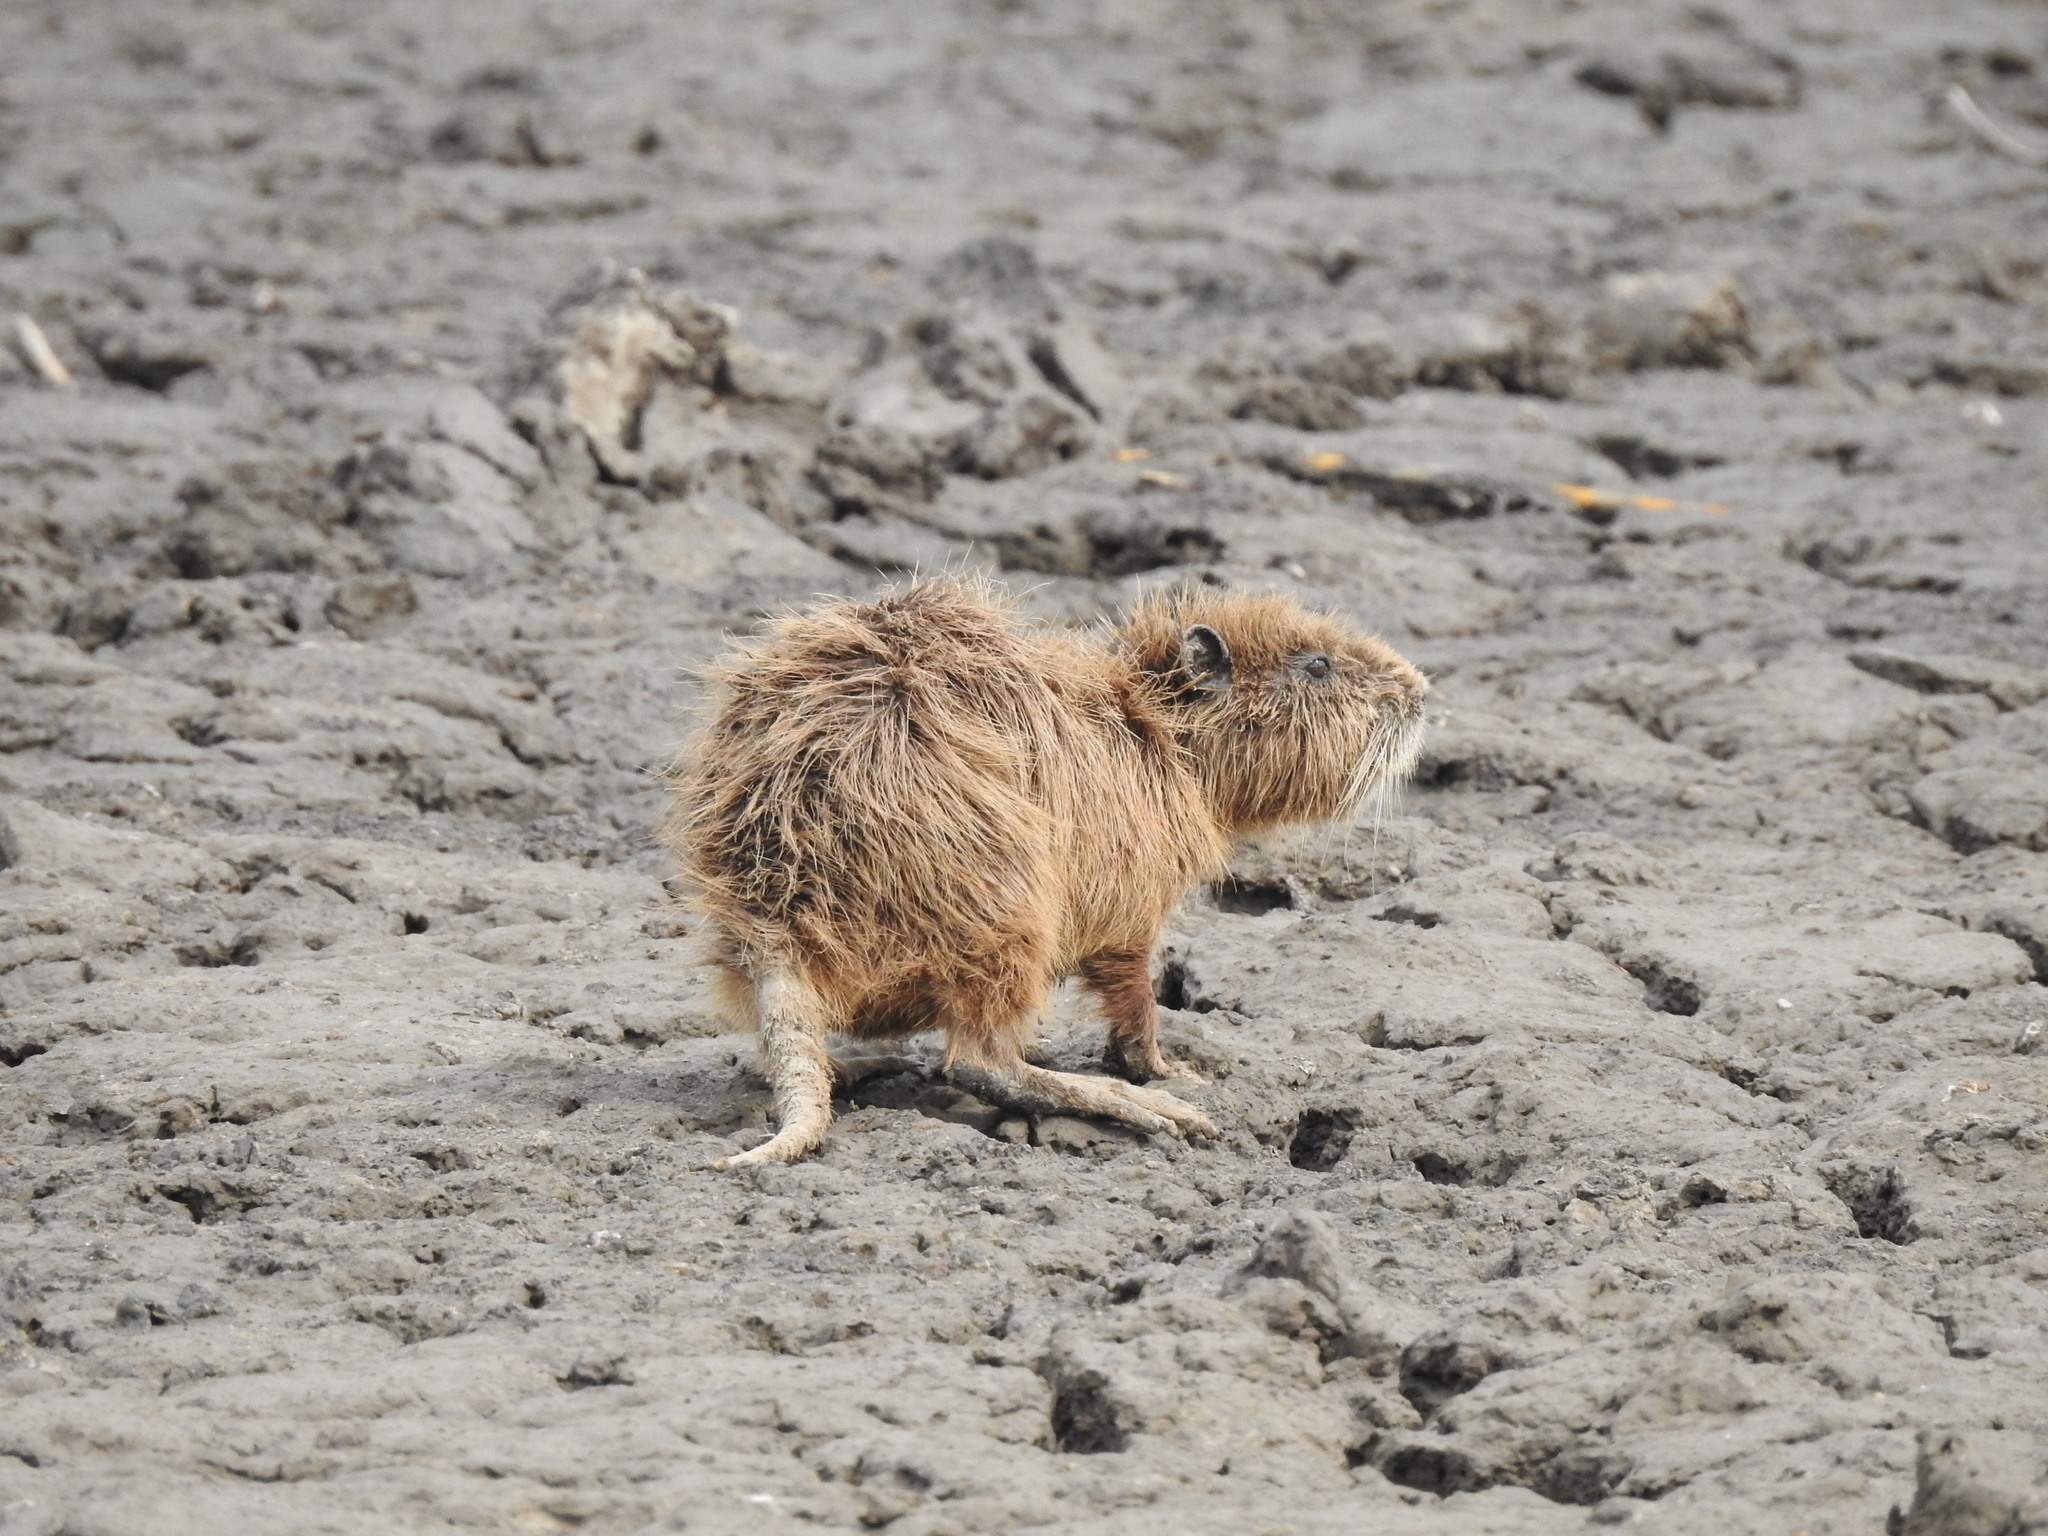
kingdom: Animalia
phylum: Chordata
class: Mammalia
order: Rodentia
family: Myocastoridae
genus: Myocastor
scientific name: Myocastor coypus
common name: Coypu
